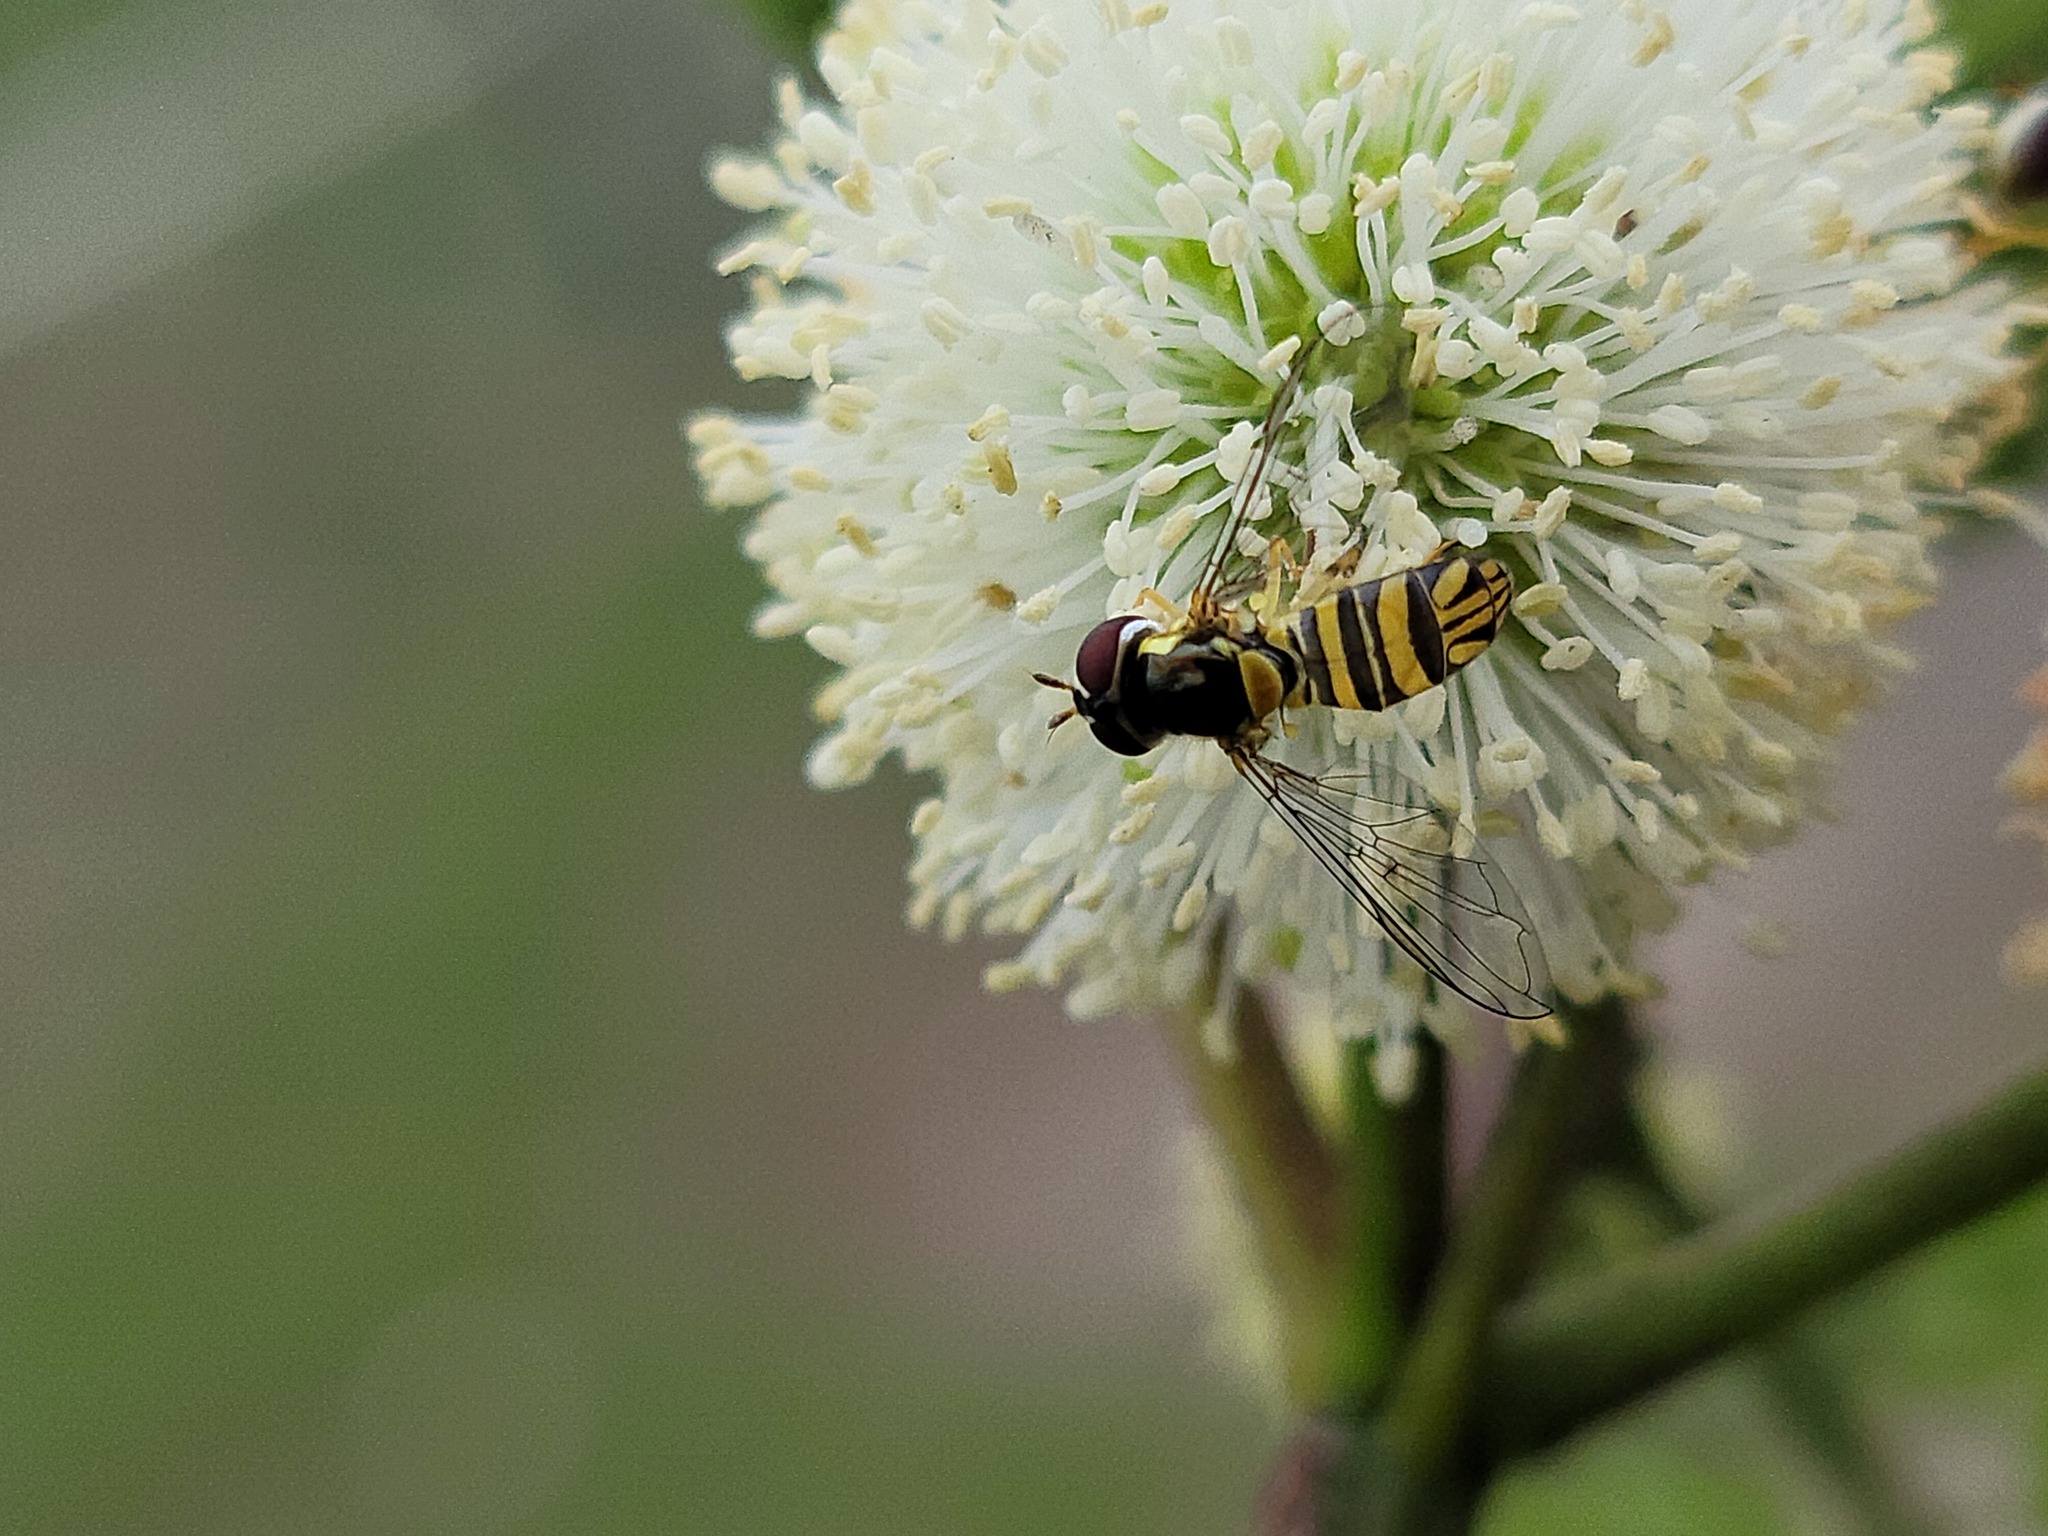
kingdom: Animalia
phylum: Arthropoda
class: Insecta
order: Diptera
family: Syrphidae
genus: Allograpta
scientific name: Allograpta obliqua
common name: Common oblique syrphid
